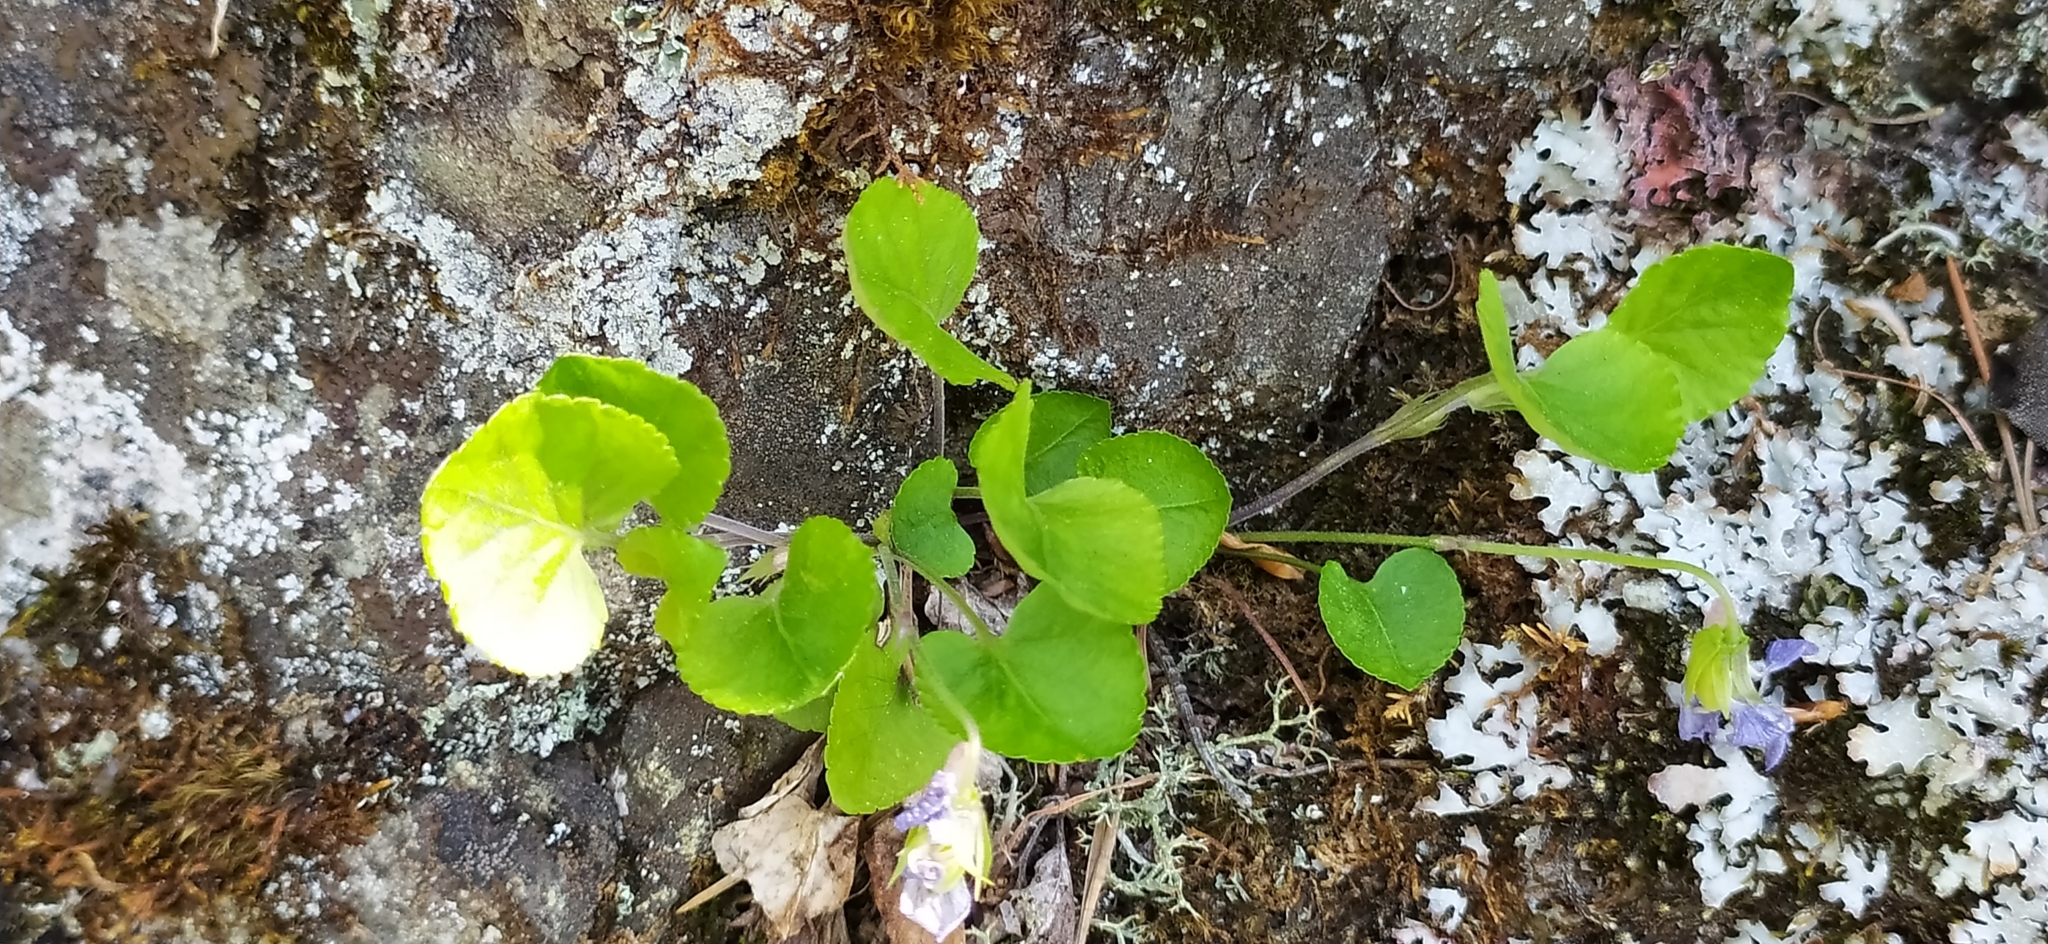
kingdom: Plantae
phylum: Tracheophyta
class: Magnoliopsida
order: Malpighiales
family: Violaceae
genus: Viola
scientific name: Viola rupestris
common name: Teesdale violet
